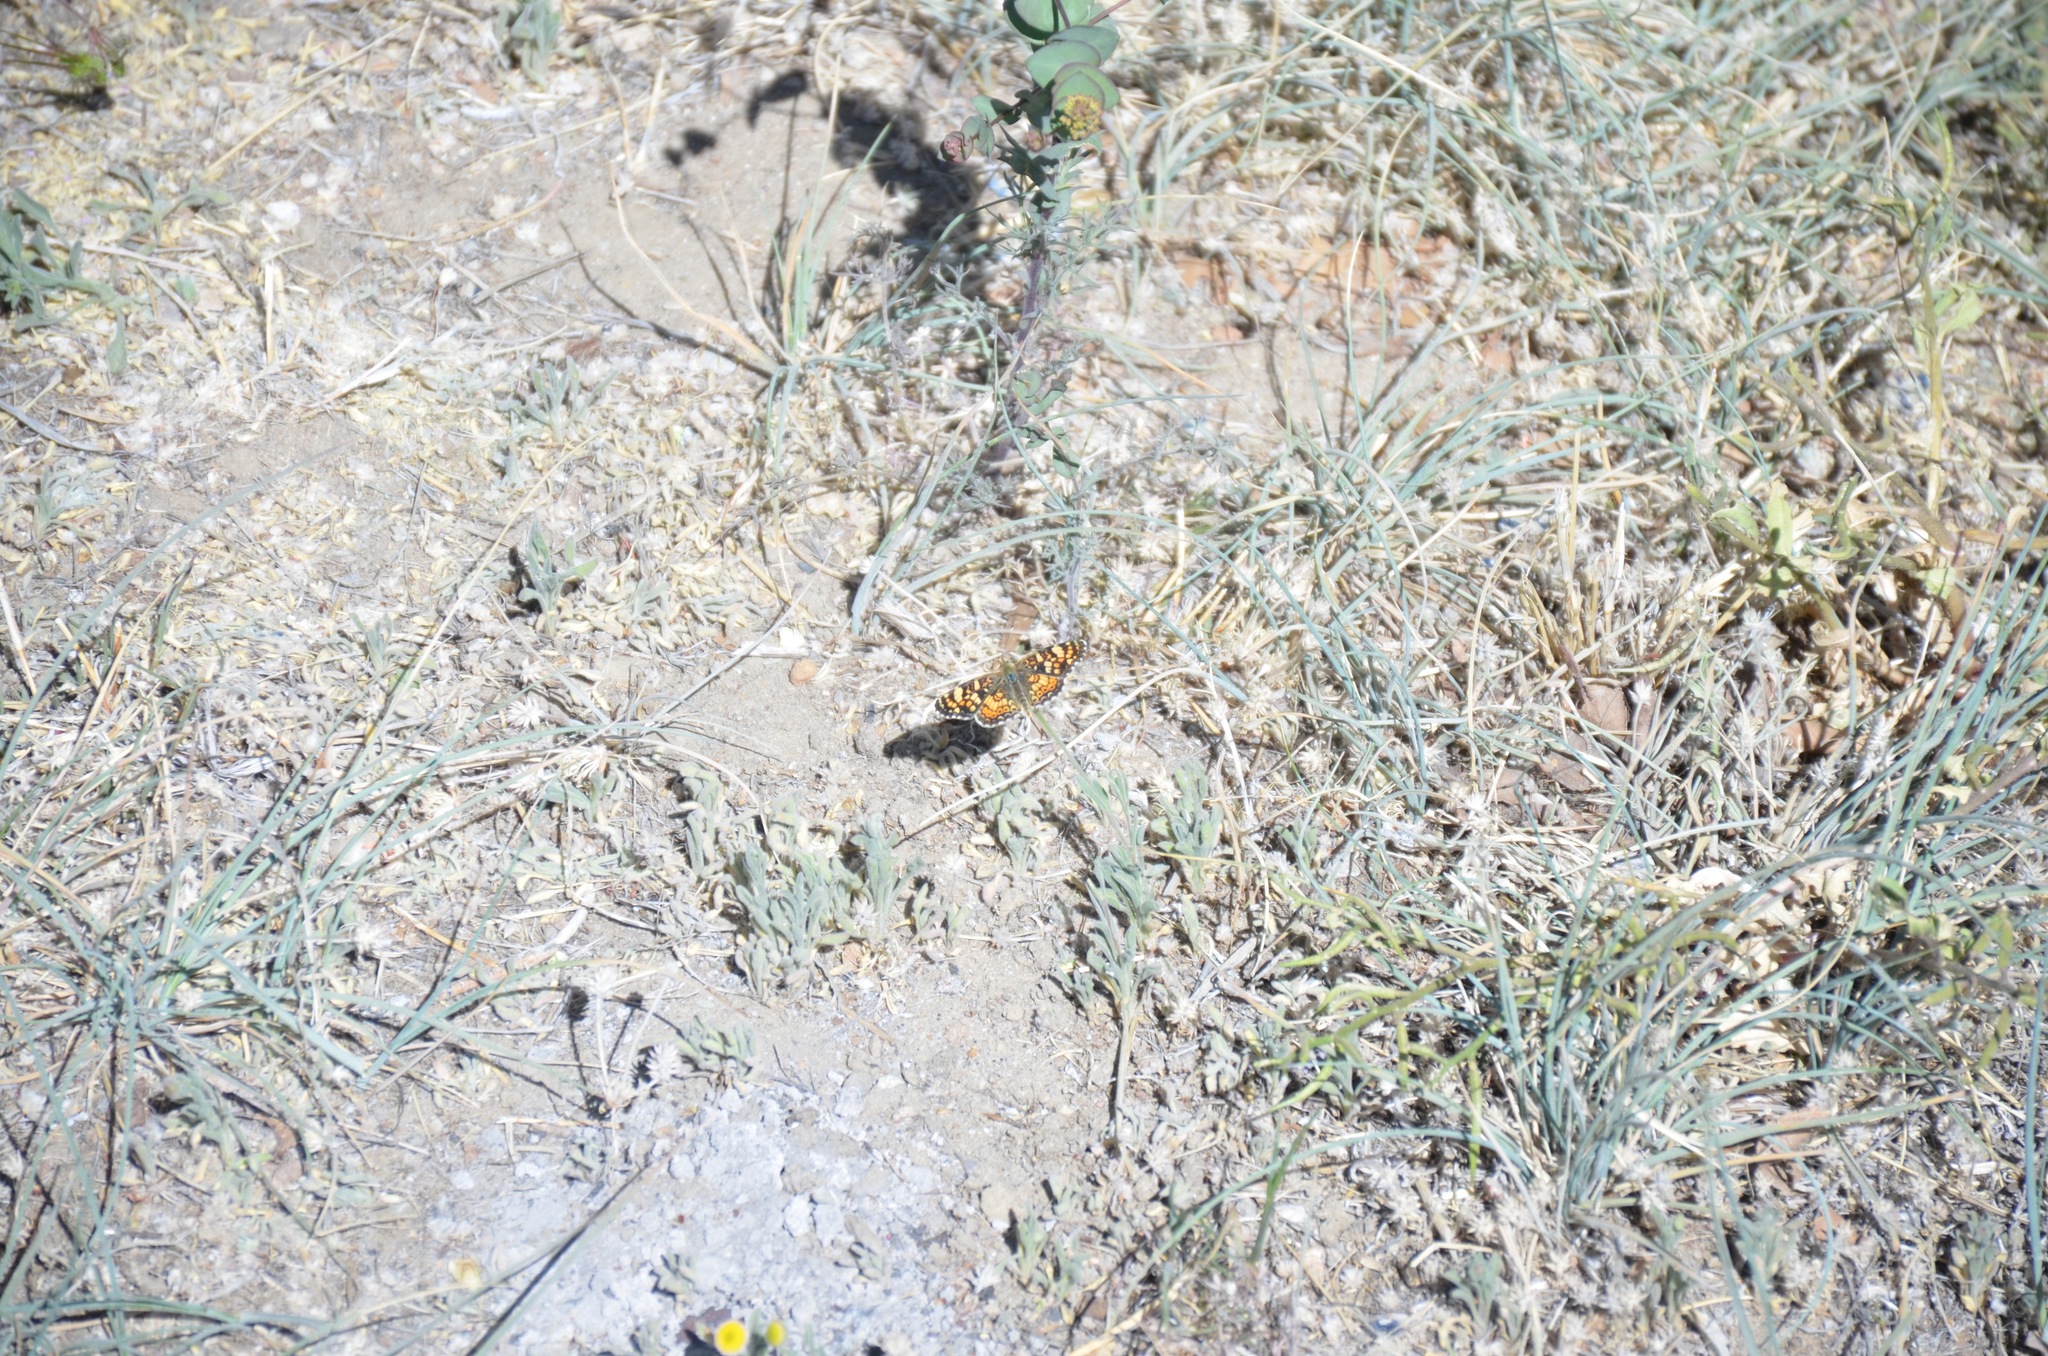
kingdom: Animalia
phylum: Arthropoda
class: Insecta
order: Lepidoptera
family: Nymphalidae
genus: Phyciodes
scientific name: Phyciodes tharos
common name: Pearl crescent
